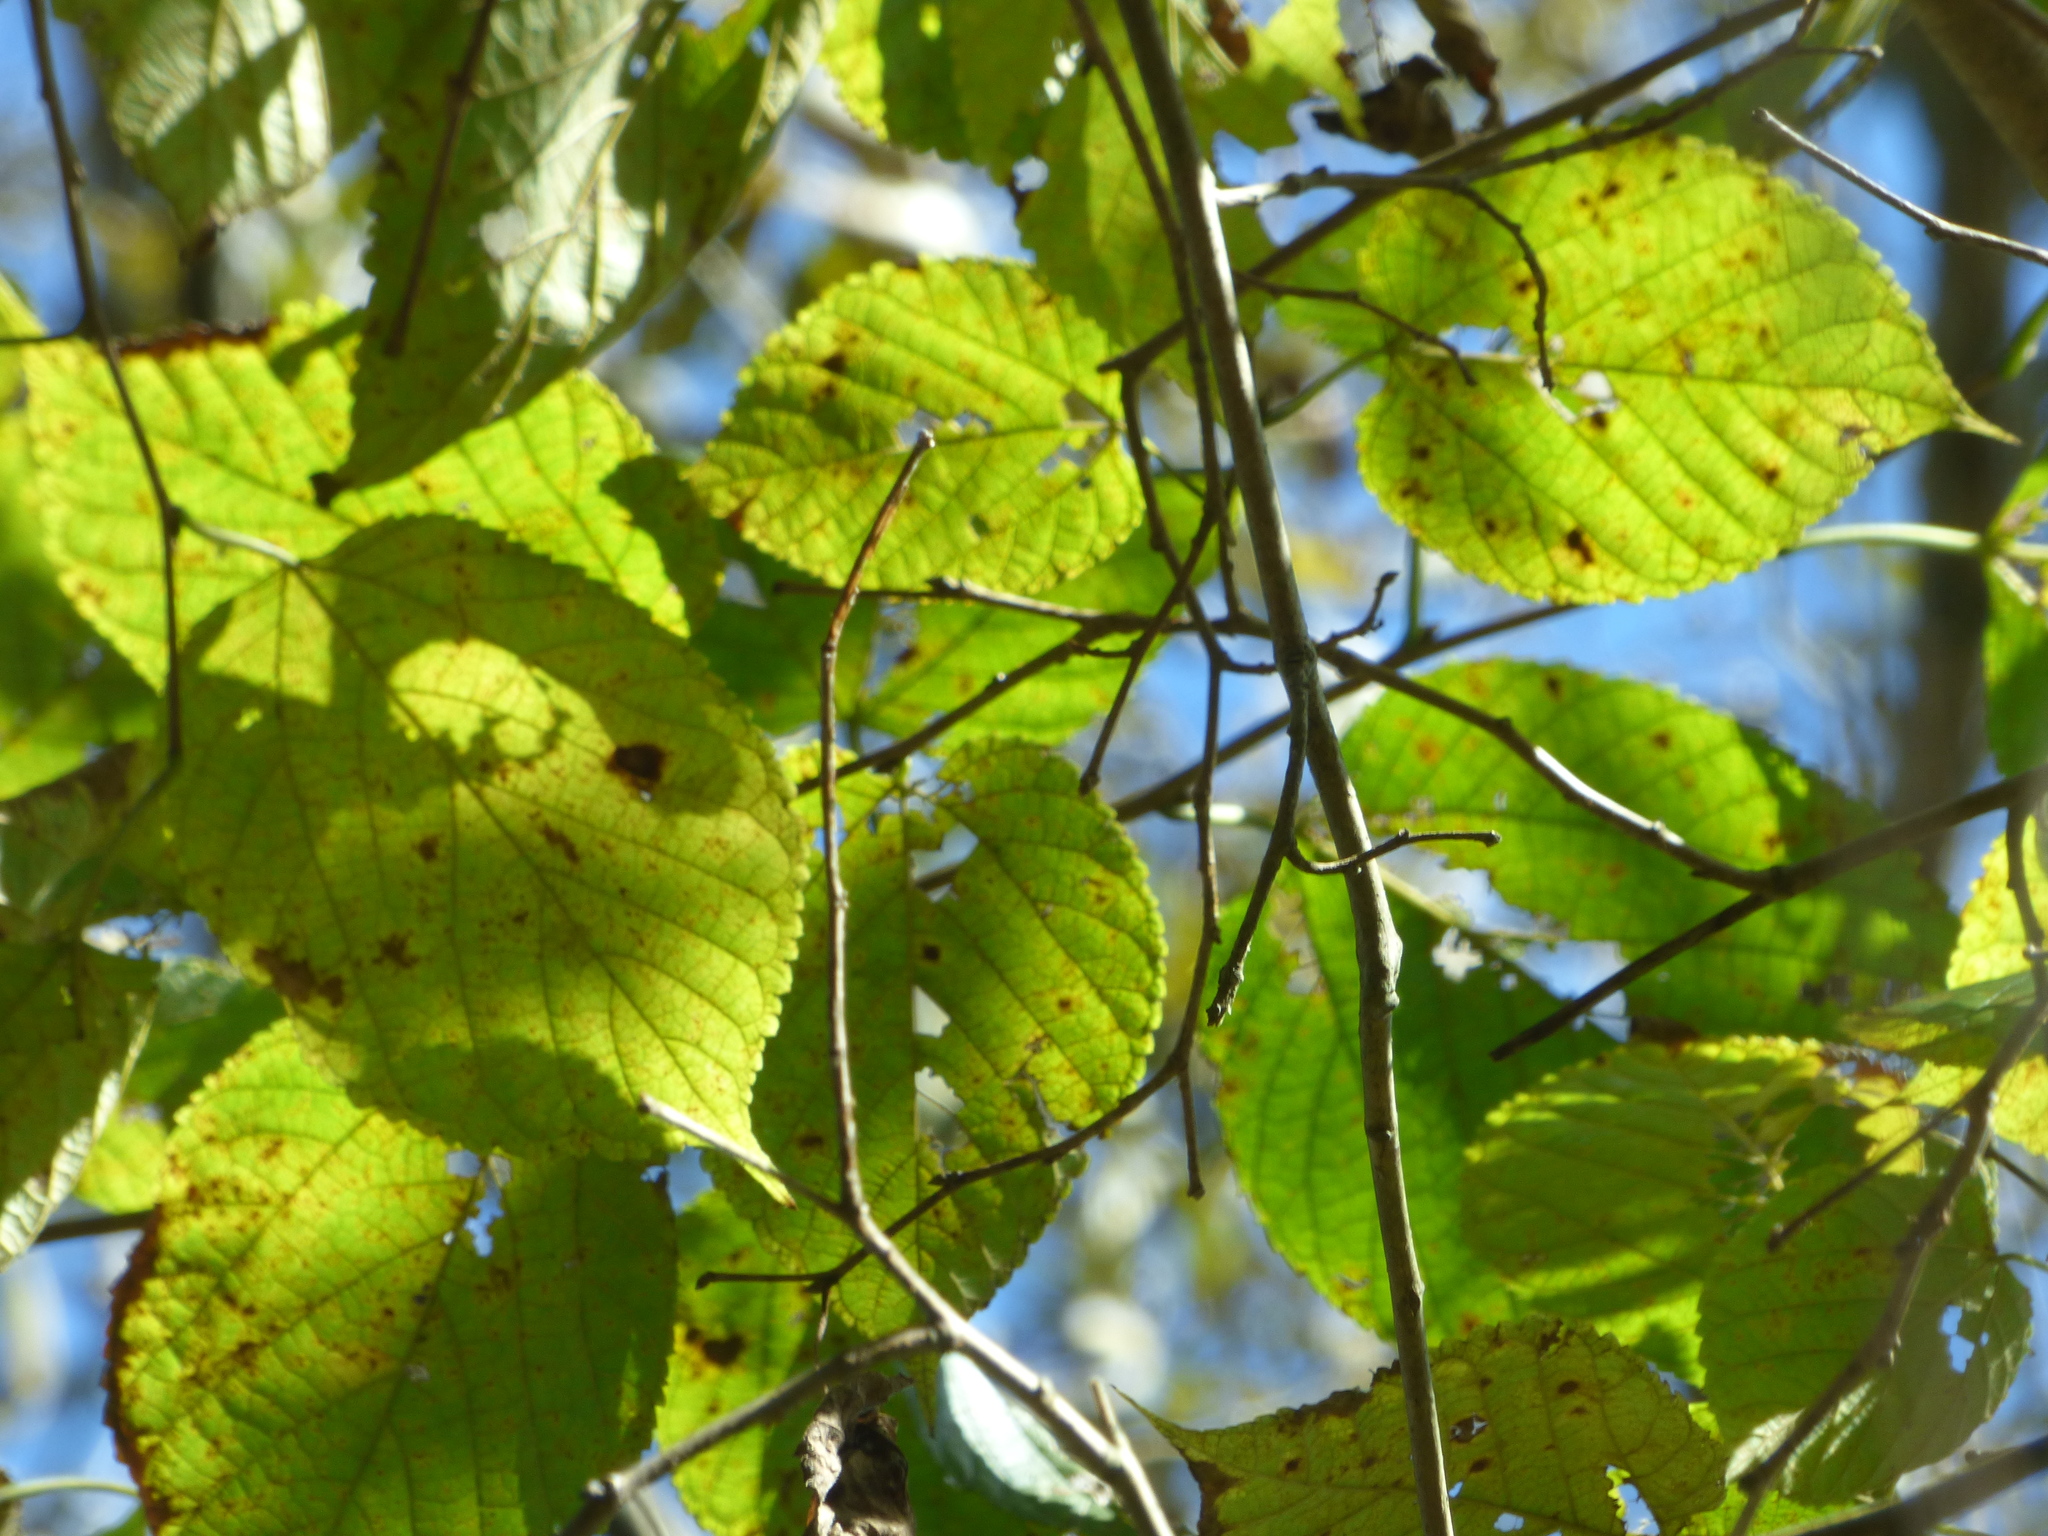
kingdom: Plantae
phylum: Tracheophyta
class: Magnoliopsida
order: Malvales
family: Malvaceae
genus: Tilia
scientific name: Tilia americana
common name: Basswood
